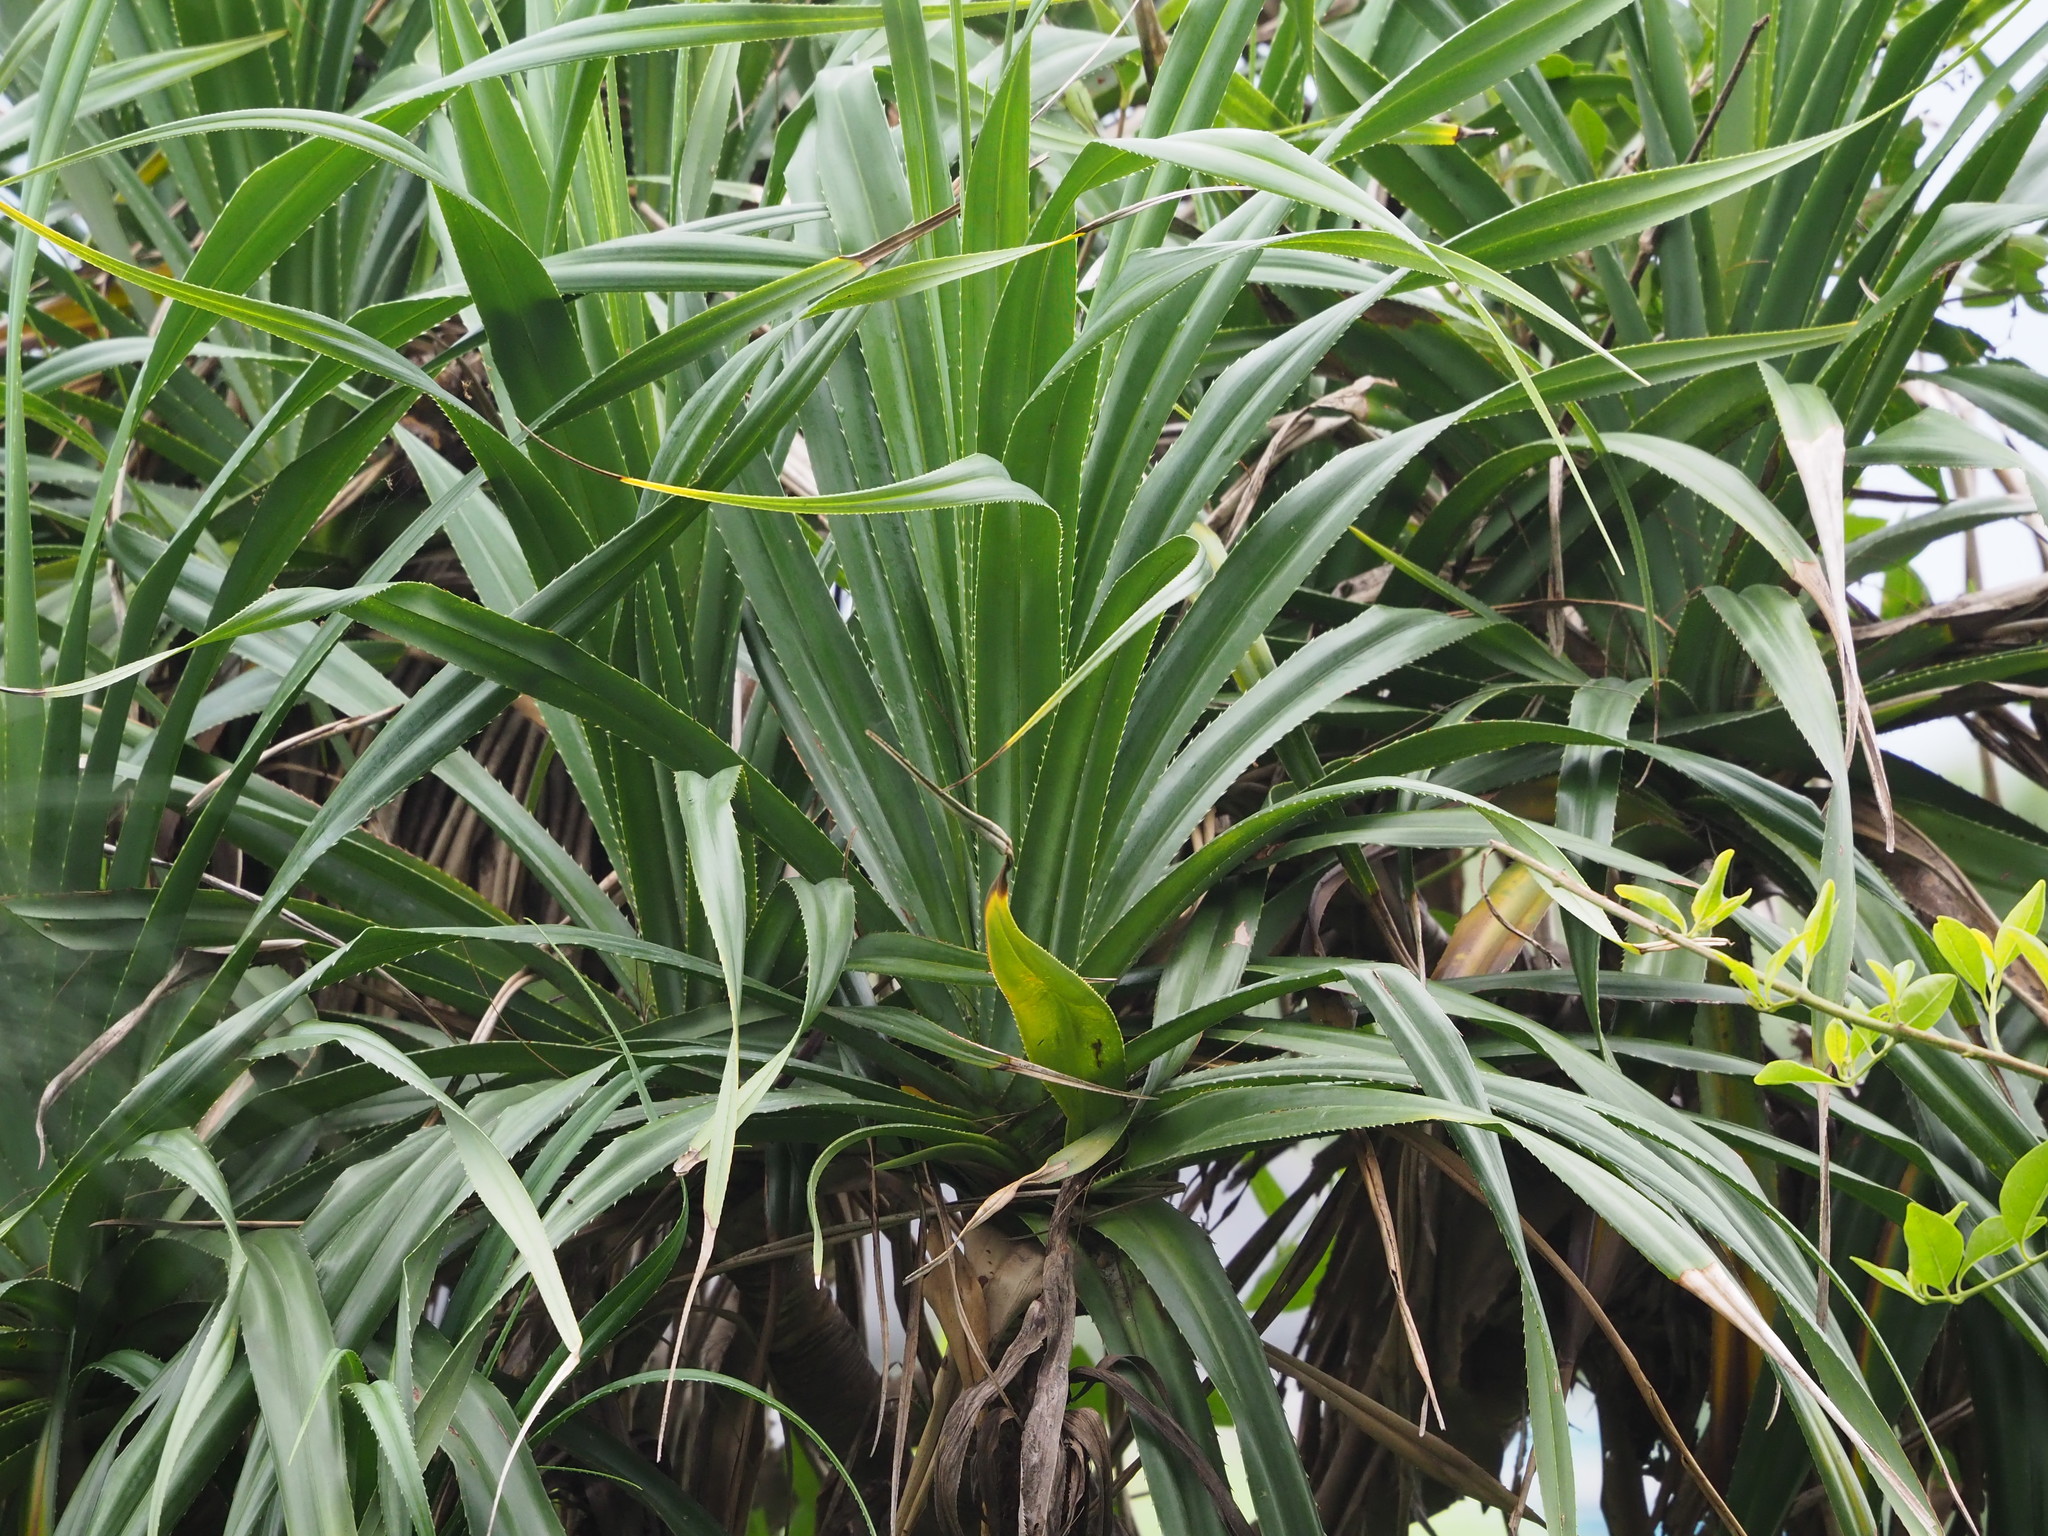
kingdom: Plantae
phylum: Tracheophyta
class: Liliopsida
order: Pandanales
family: Pandanaceae
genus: Pandanus
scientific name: Pandanus odorifer
